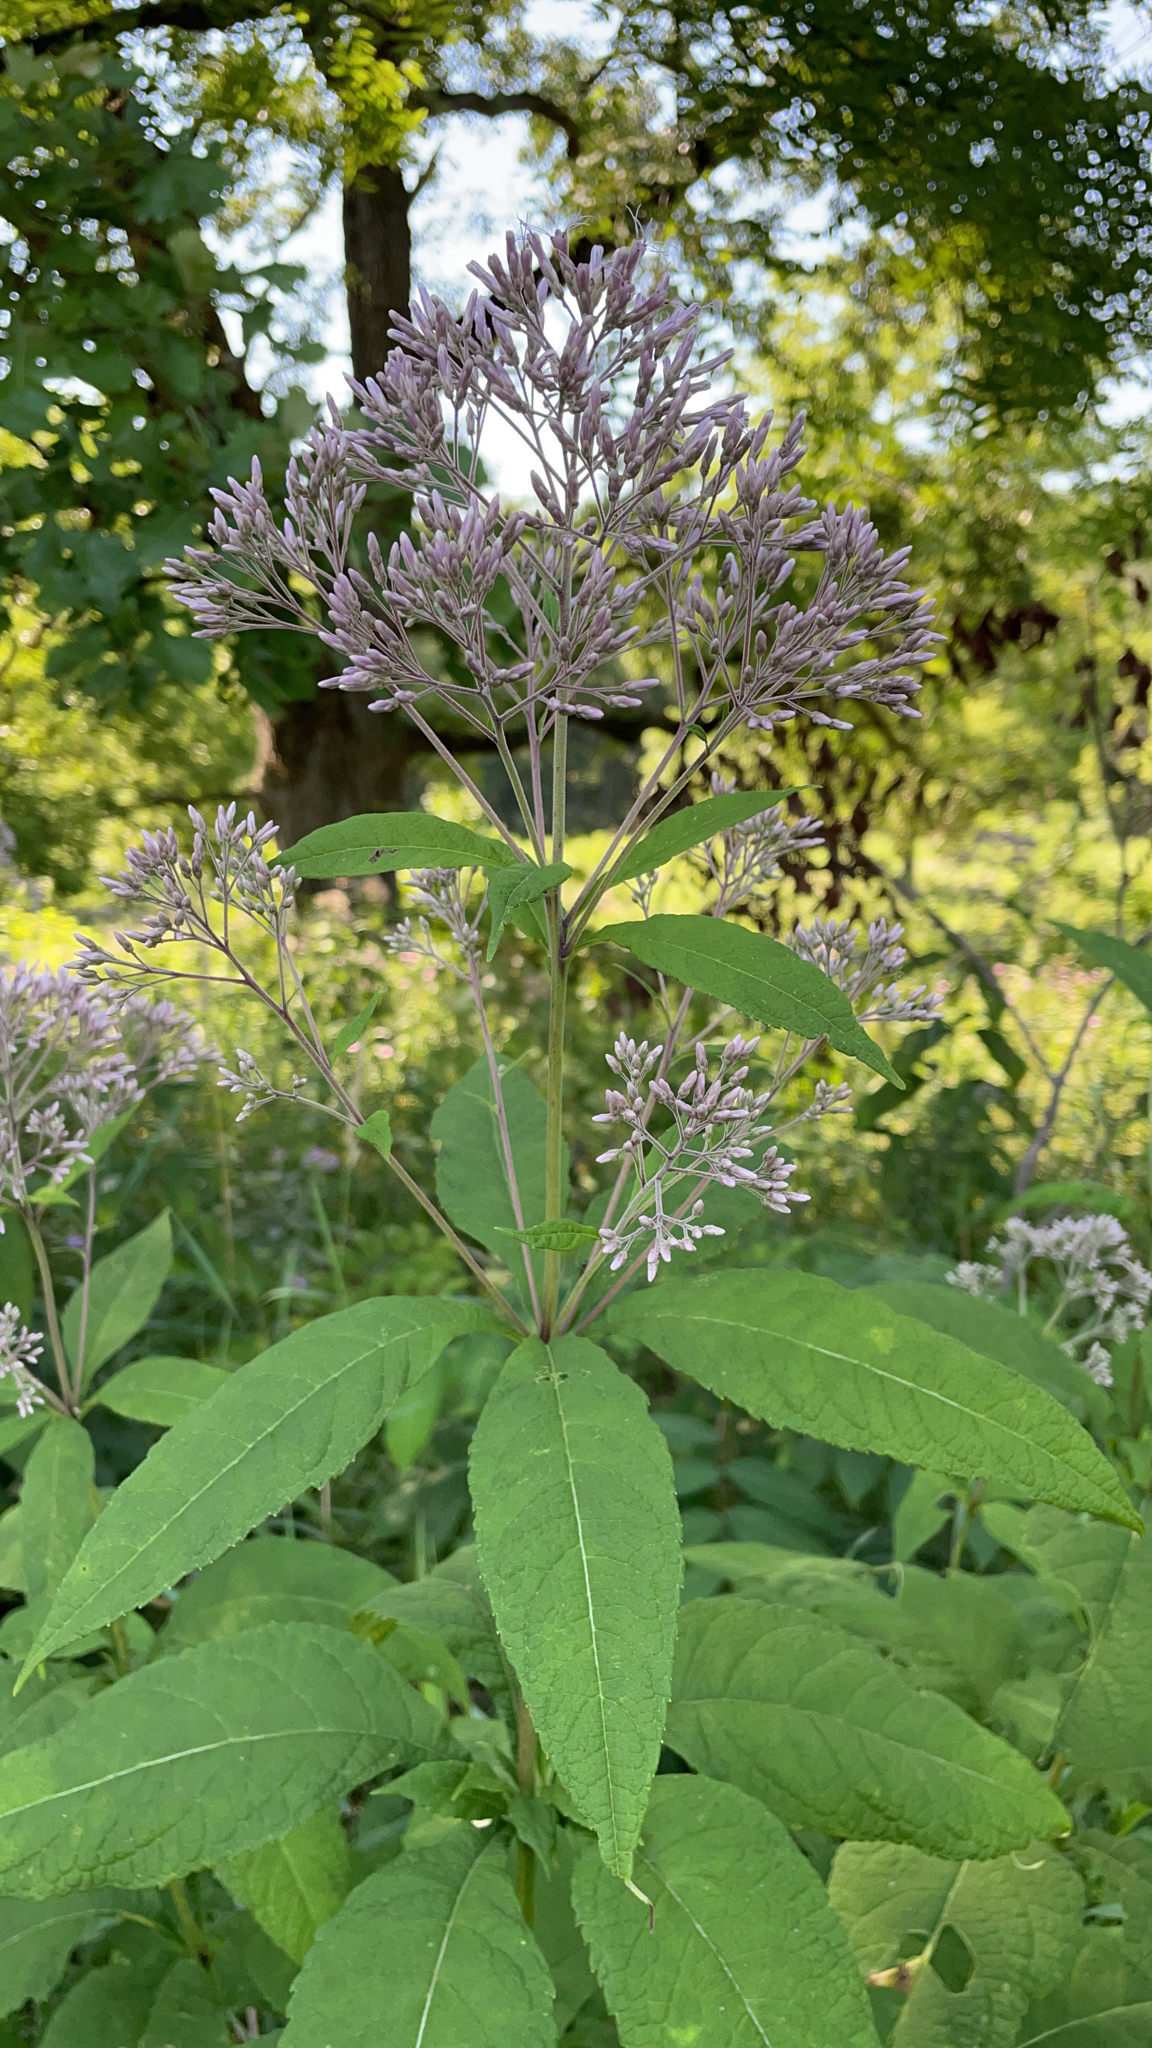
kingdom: Plantae
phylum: Tracheophyta
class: Magnoliopsida
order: Asterales
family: Asteraceae
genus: Eutrochium
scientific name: Eutrochium purpureum
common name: Gravelroot
